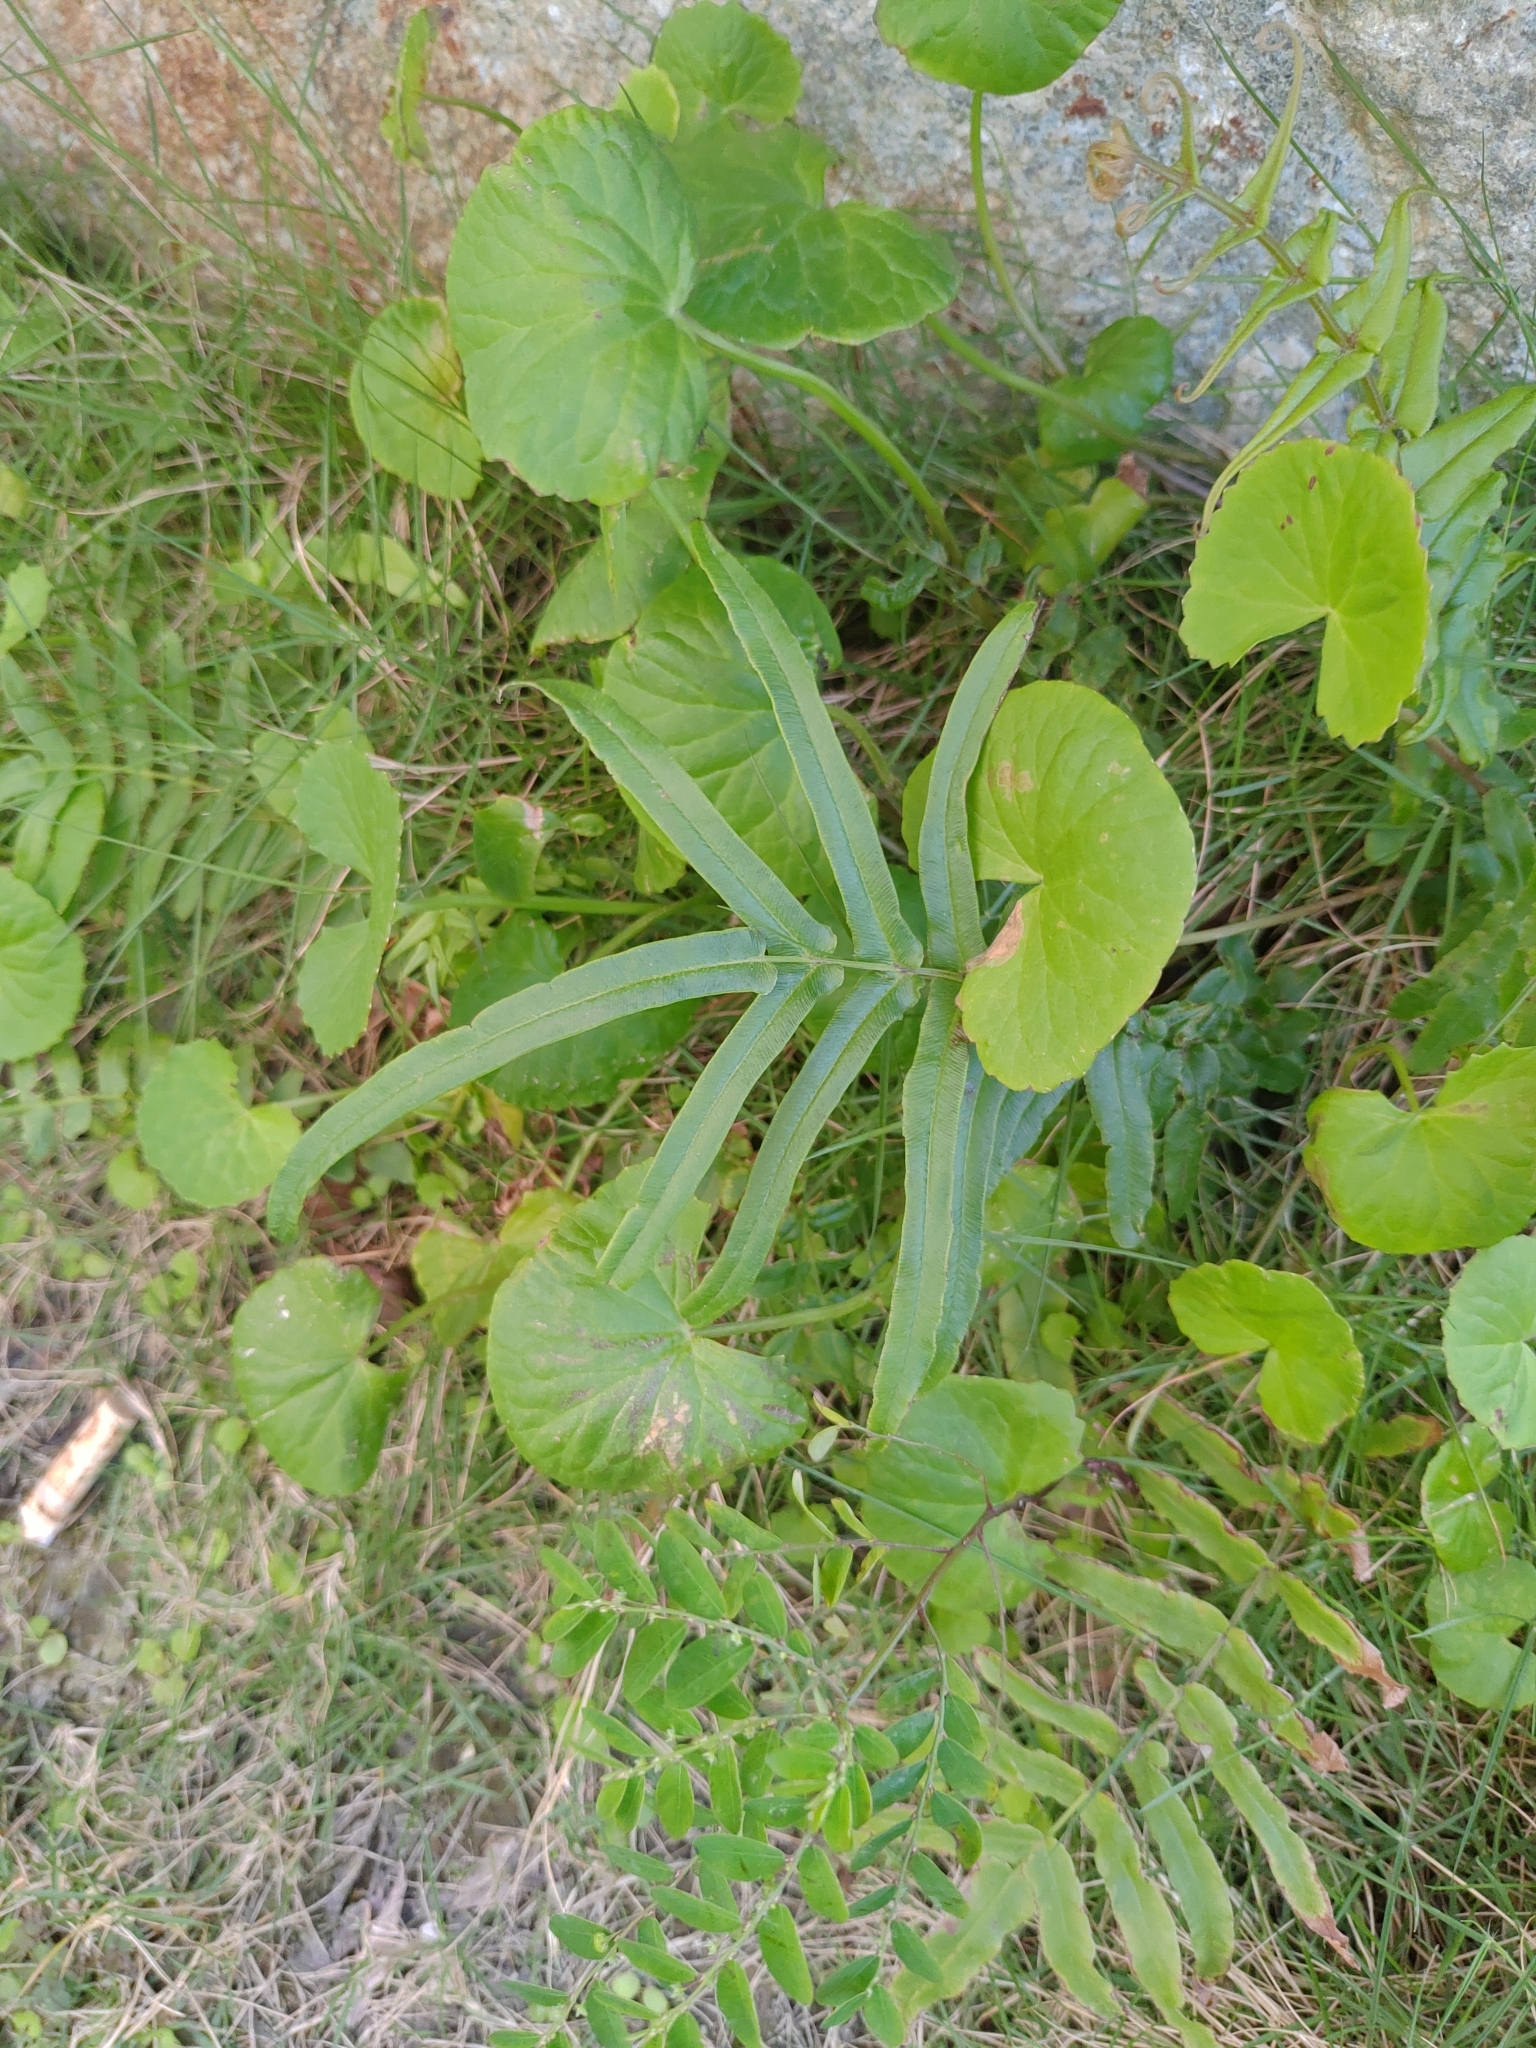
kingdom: Plantae
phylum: Tracheophyta
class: Polypodiopsida
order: Polypodiales
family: Pteridaceae
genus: Pteris
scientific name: Pteris vittata
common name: Ladder brake
